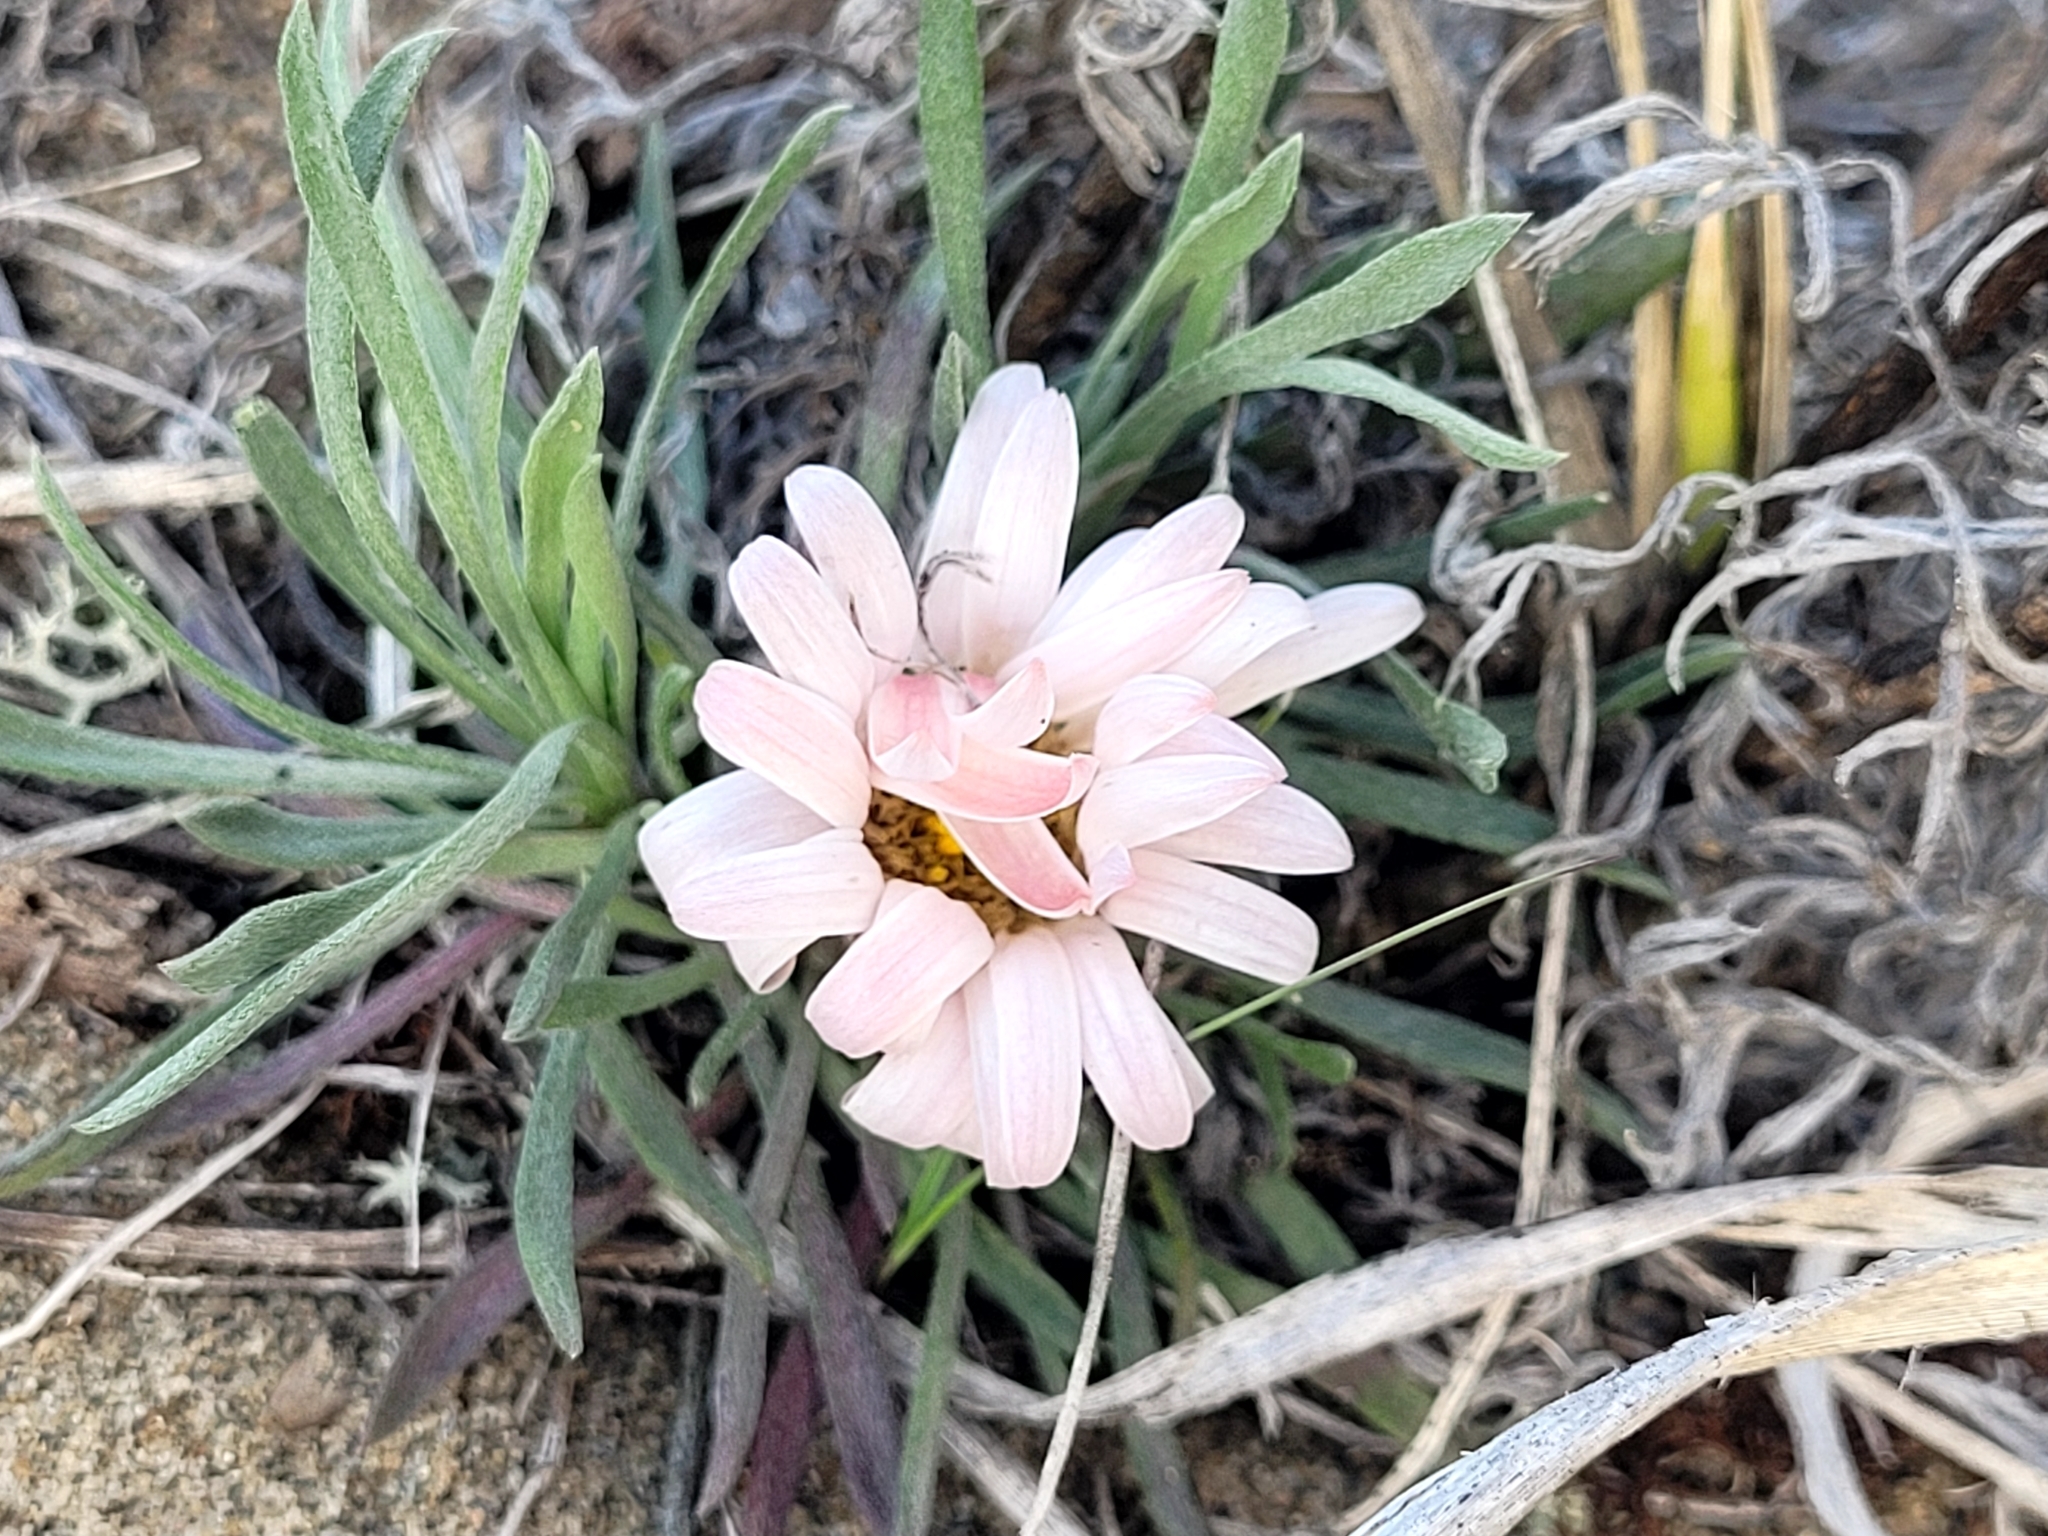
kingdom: Plantae
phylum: Tracheophyta
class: Magnoliopsida
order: Asterales
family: Asteraceae
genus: Townsendia
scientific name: Townsendia exscapa
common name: Dwarf townsendia
